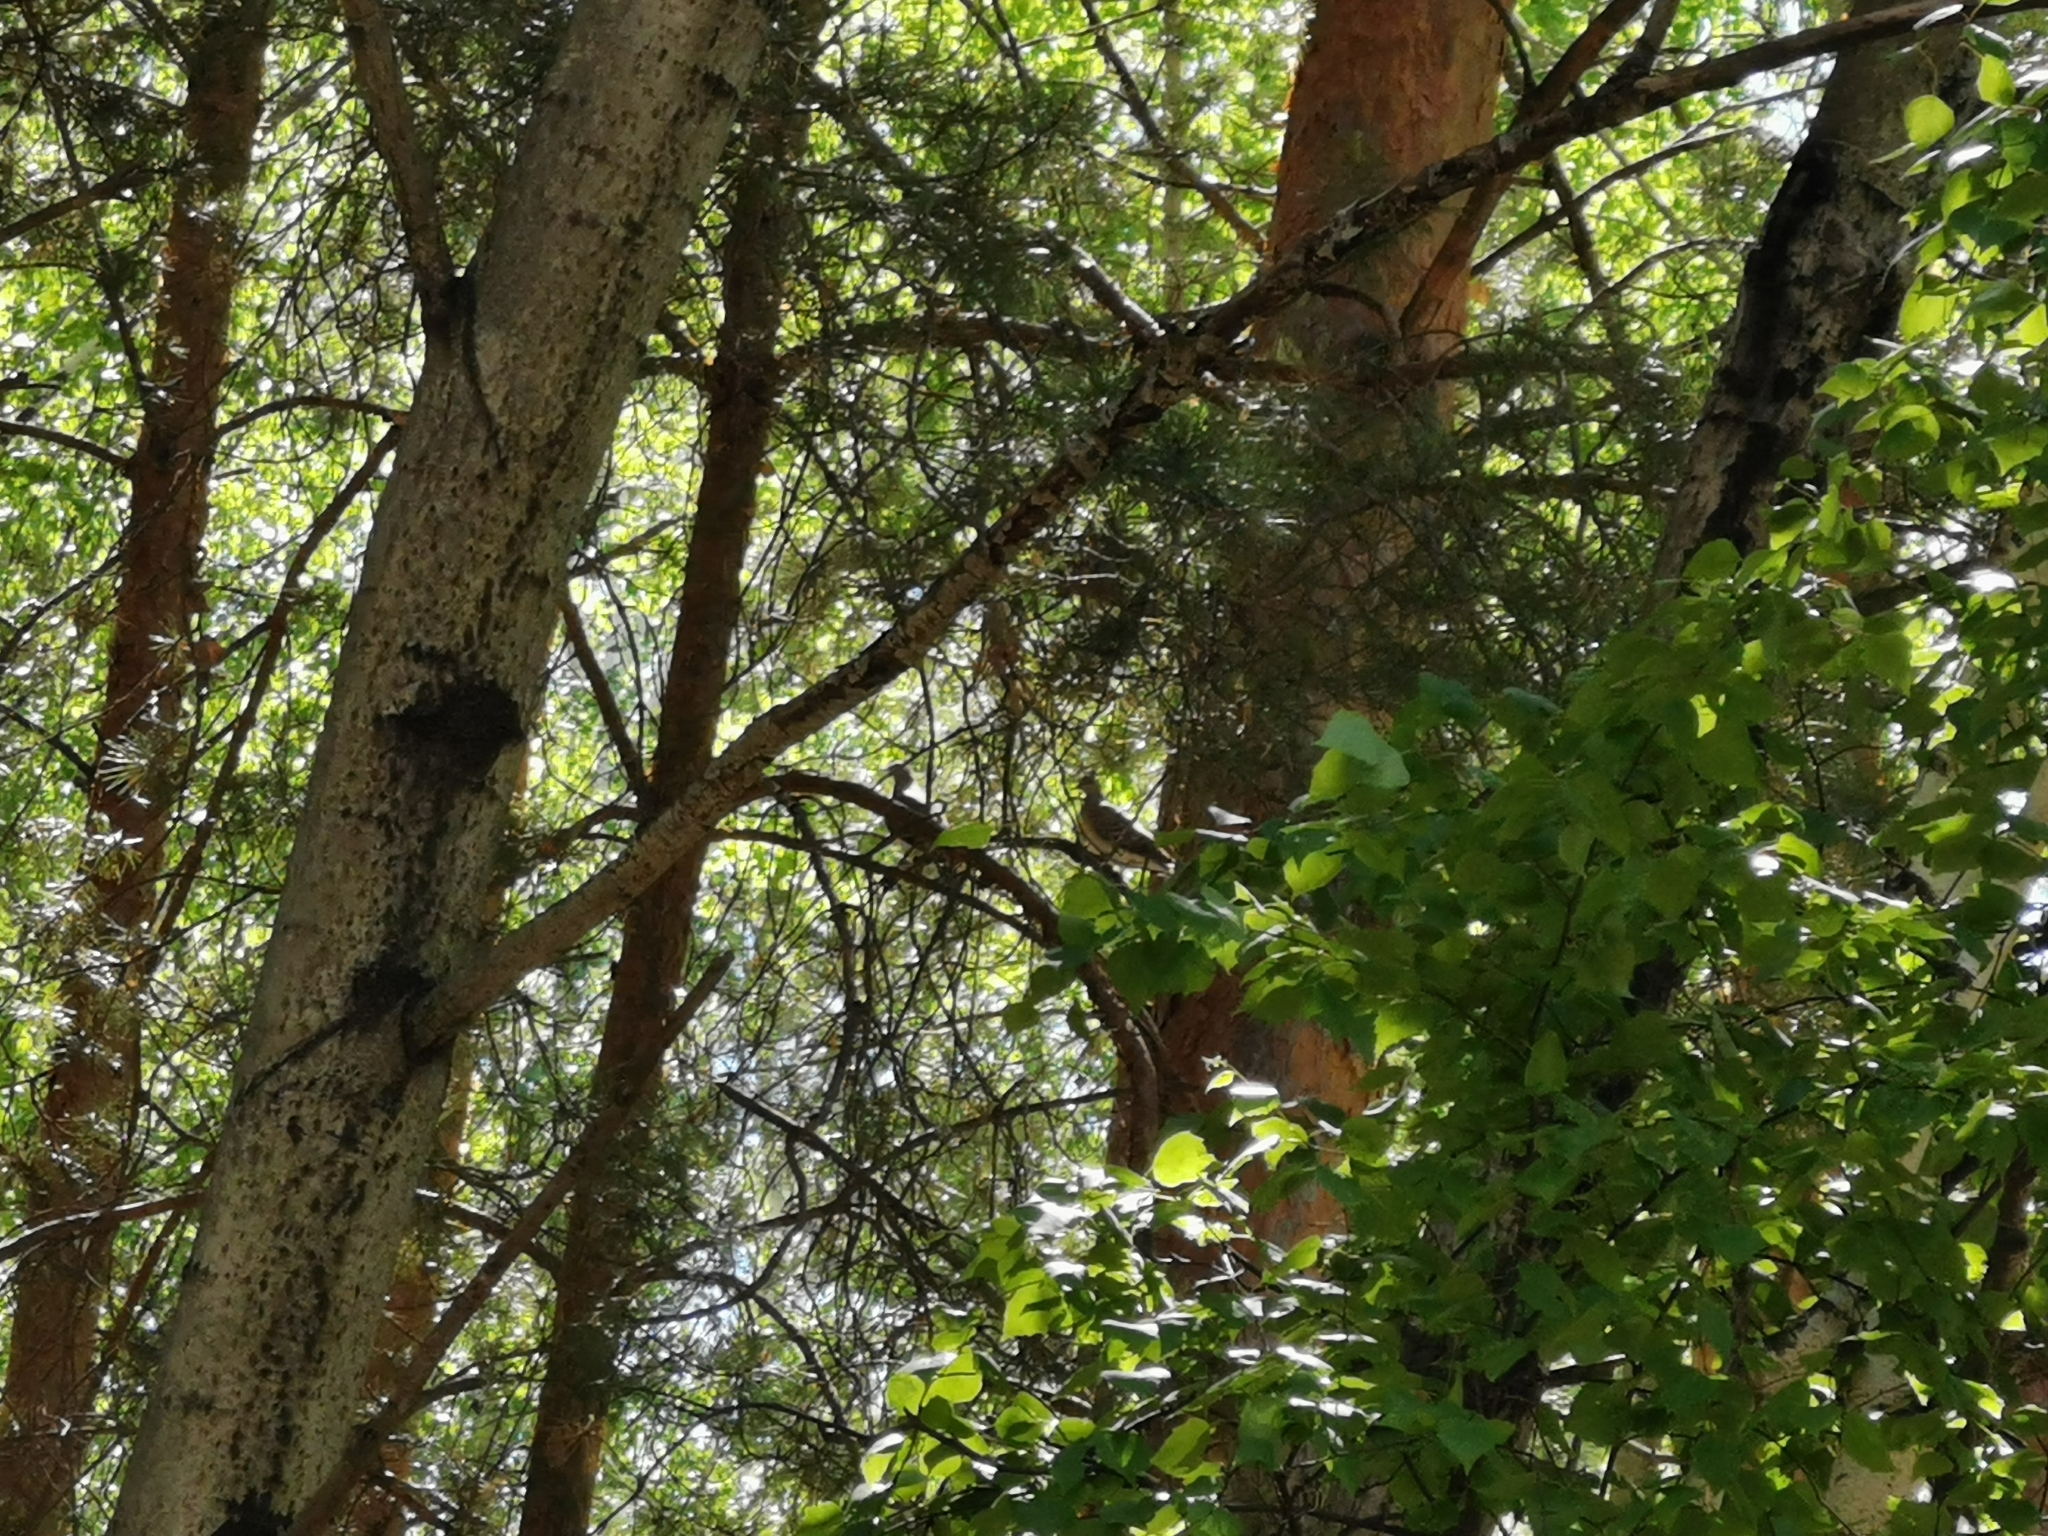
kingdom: Animalia
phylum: Chordata
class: Aves
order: Columbiformes
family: Columbidae
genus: Streptopelia
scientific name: Streptopelia orientalis
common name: Oriental turtle dove
